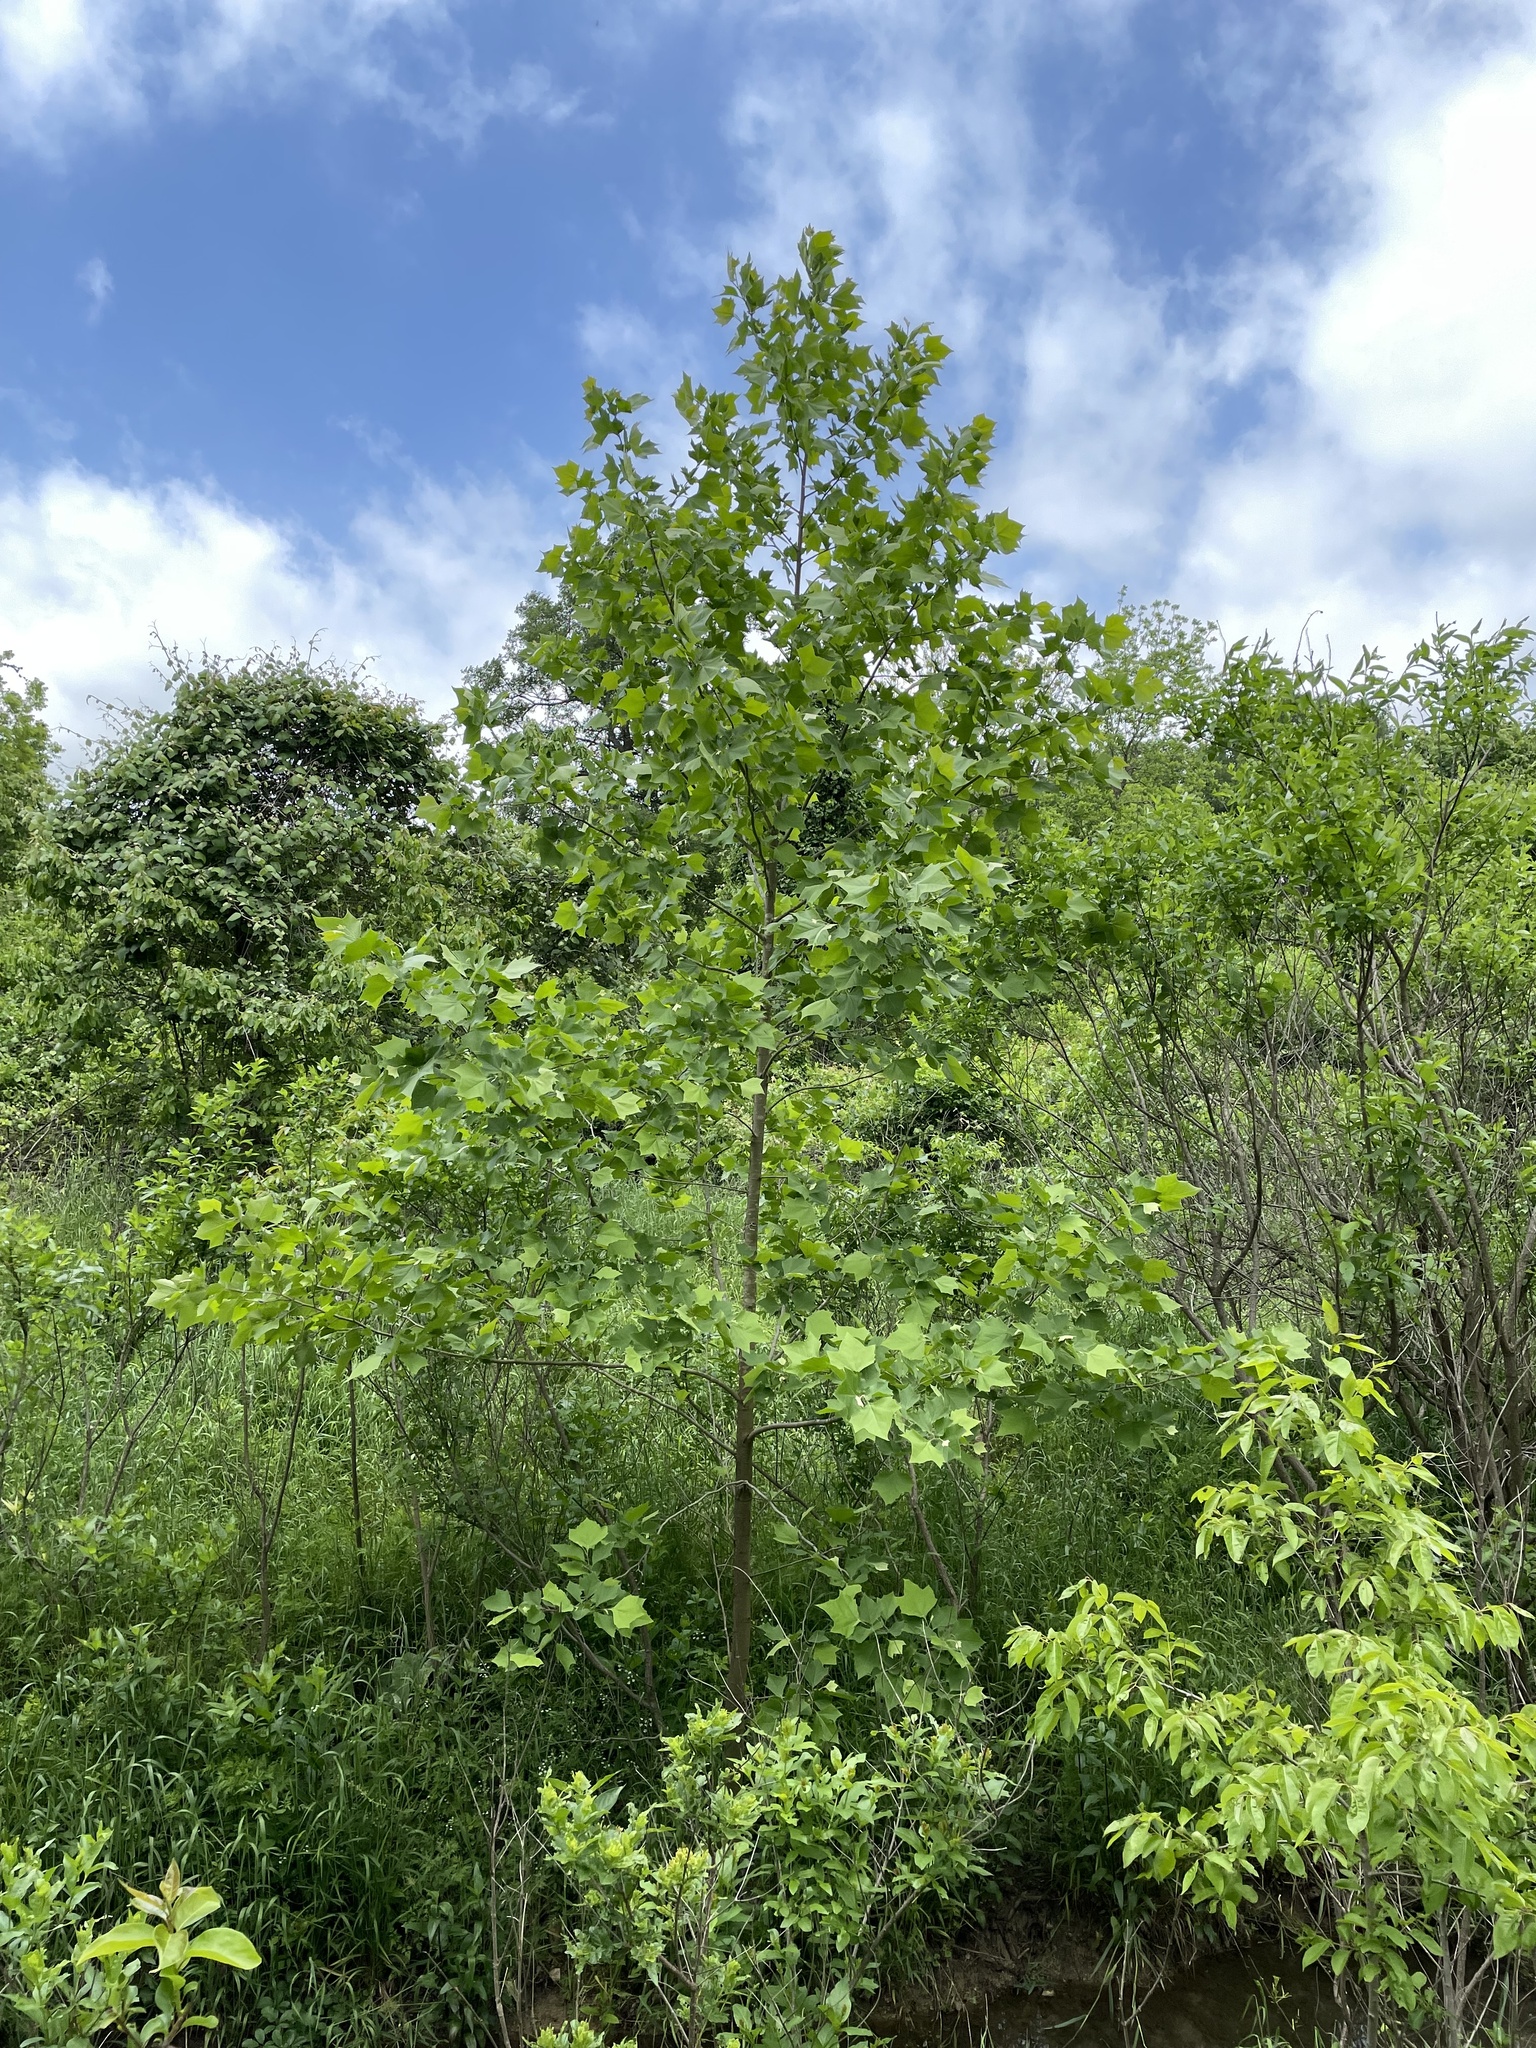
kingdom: Plantae
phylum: Tracheophyta
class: Magnoliopsida
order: Proteales
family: Platanaceae
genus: Platanus
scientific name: Platanus occidentalis
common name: American sycamore
